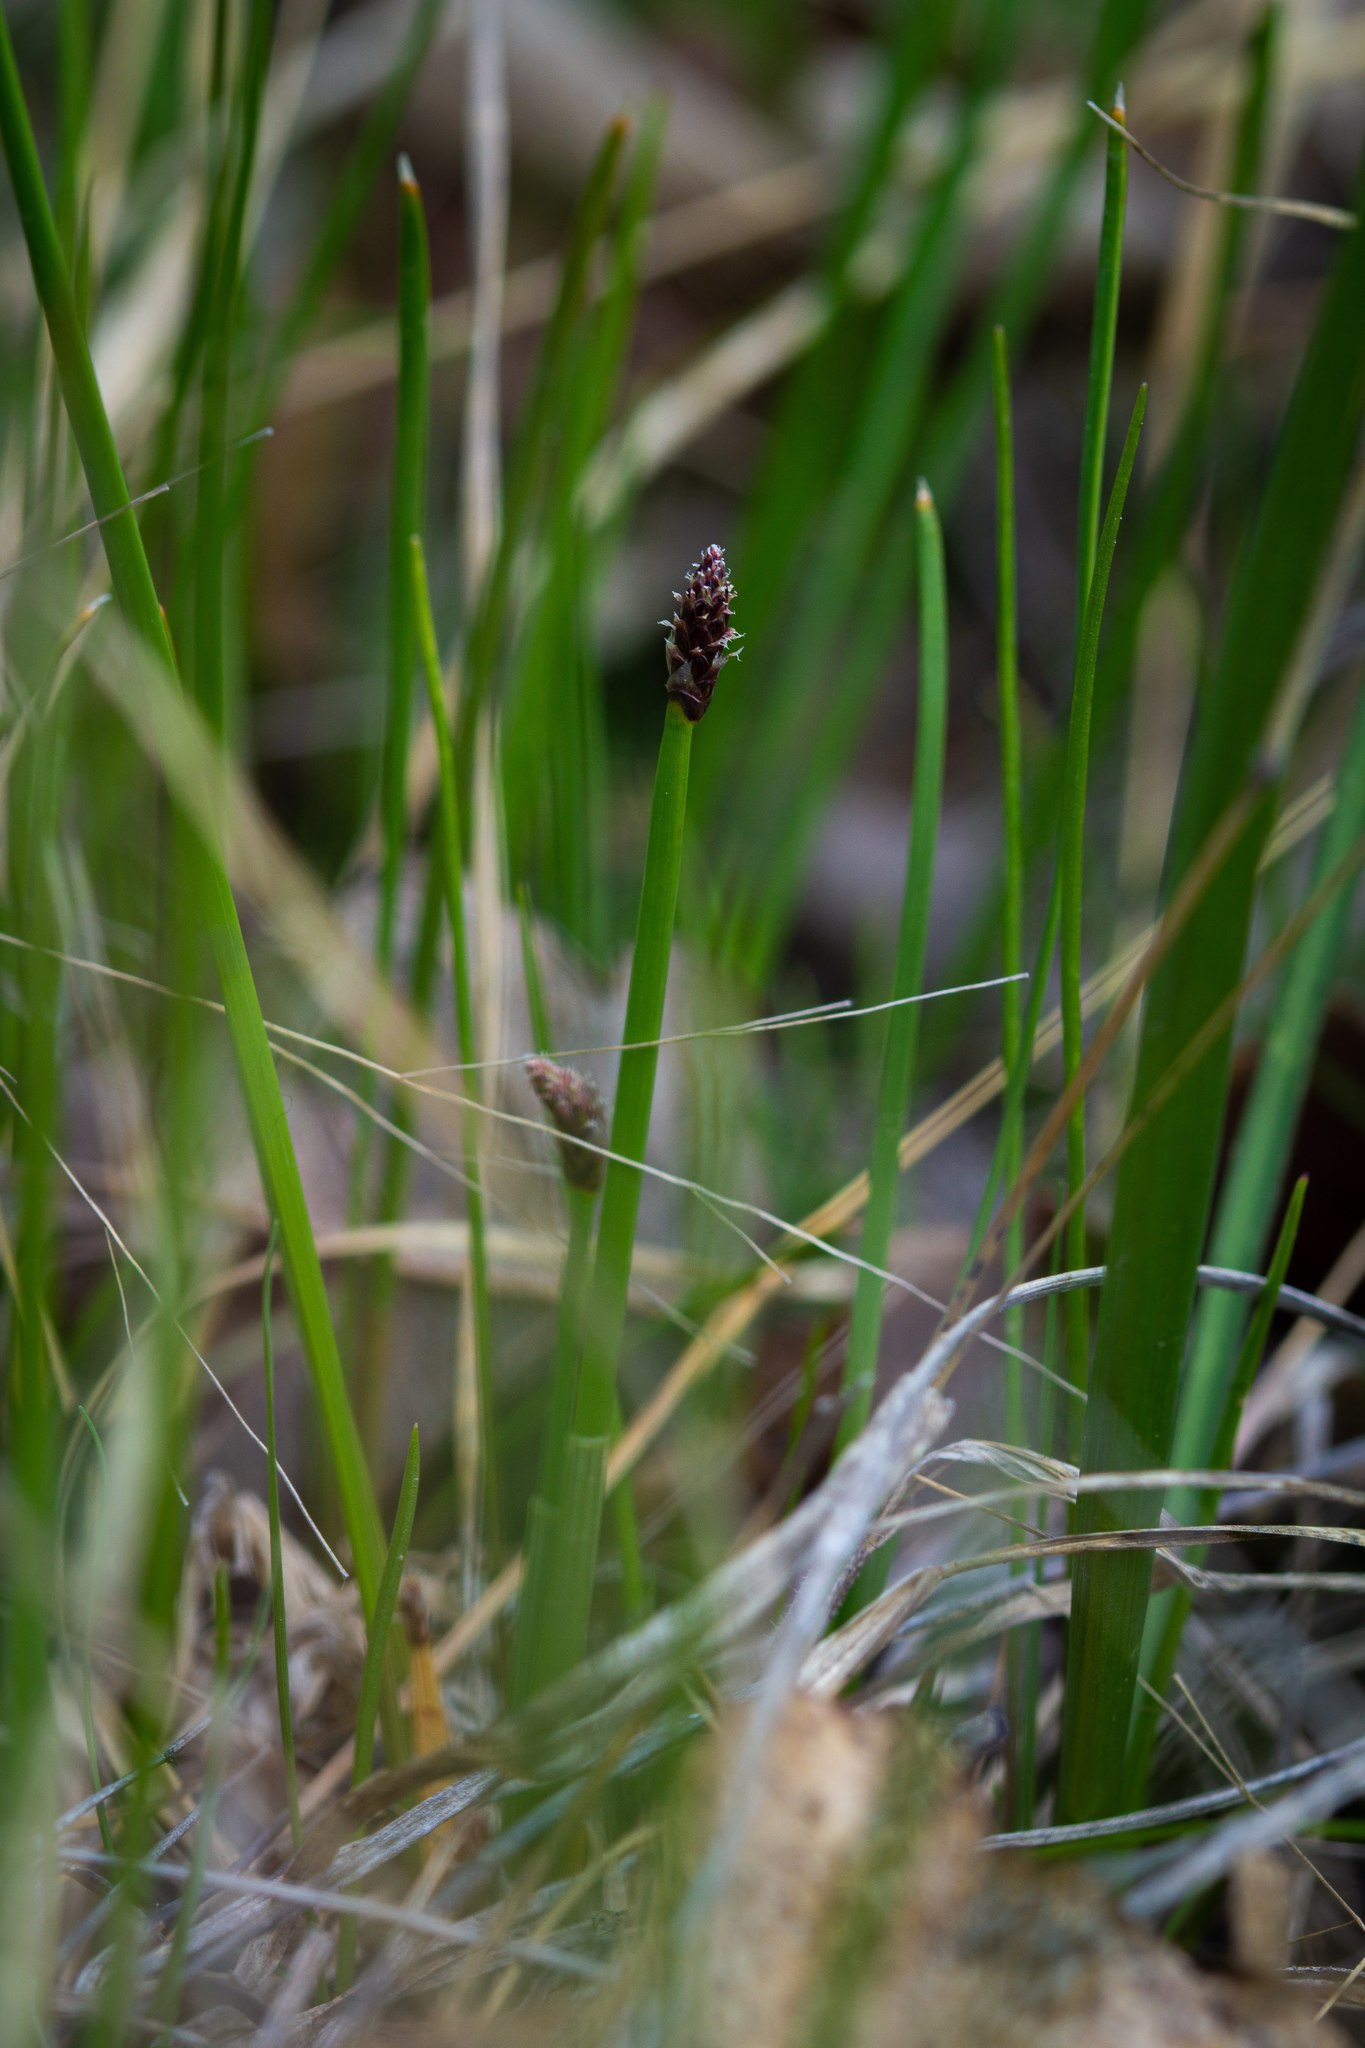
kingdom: Plantae
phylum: Tracheophyta
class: Liliopsida
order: Poales
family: Cyperaceae
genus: Eleocharis
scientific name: Eleocharis compressa
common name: Flat-stem spike-rush
